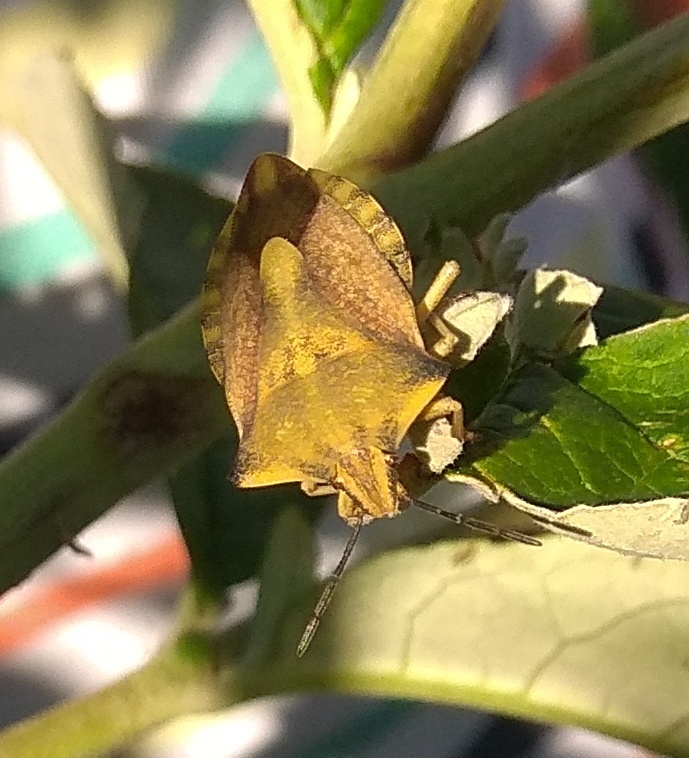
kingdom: Animalia
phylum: Arthropoda
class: Insecta
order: Hemiptera
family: Pentatomidae
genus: Carpocoris
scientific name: Carpocoris fuscispinus
